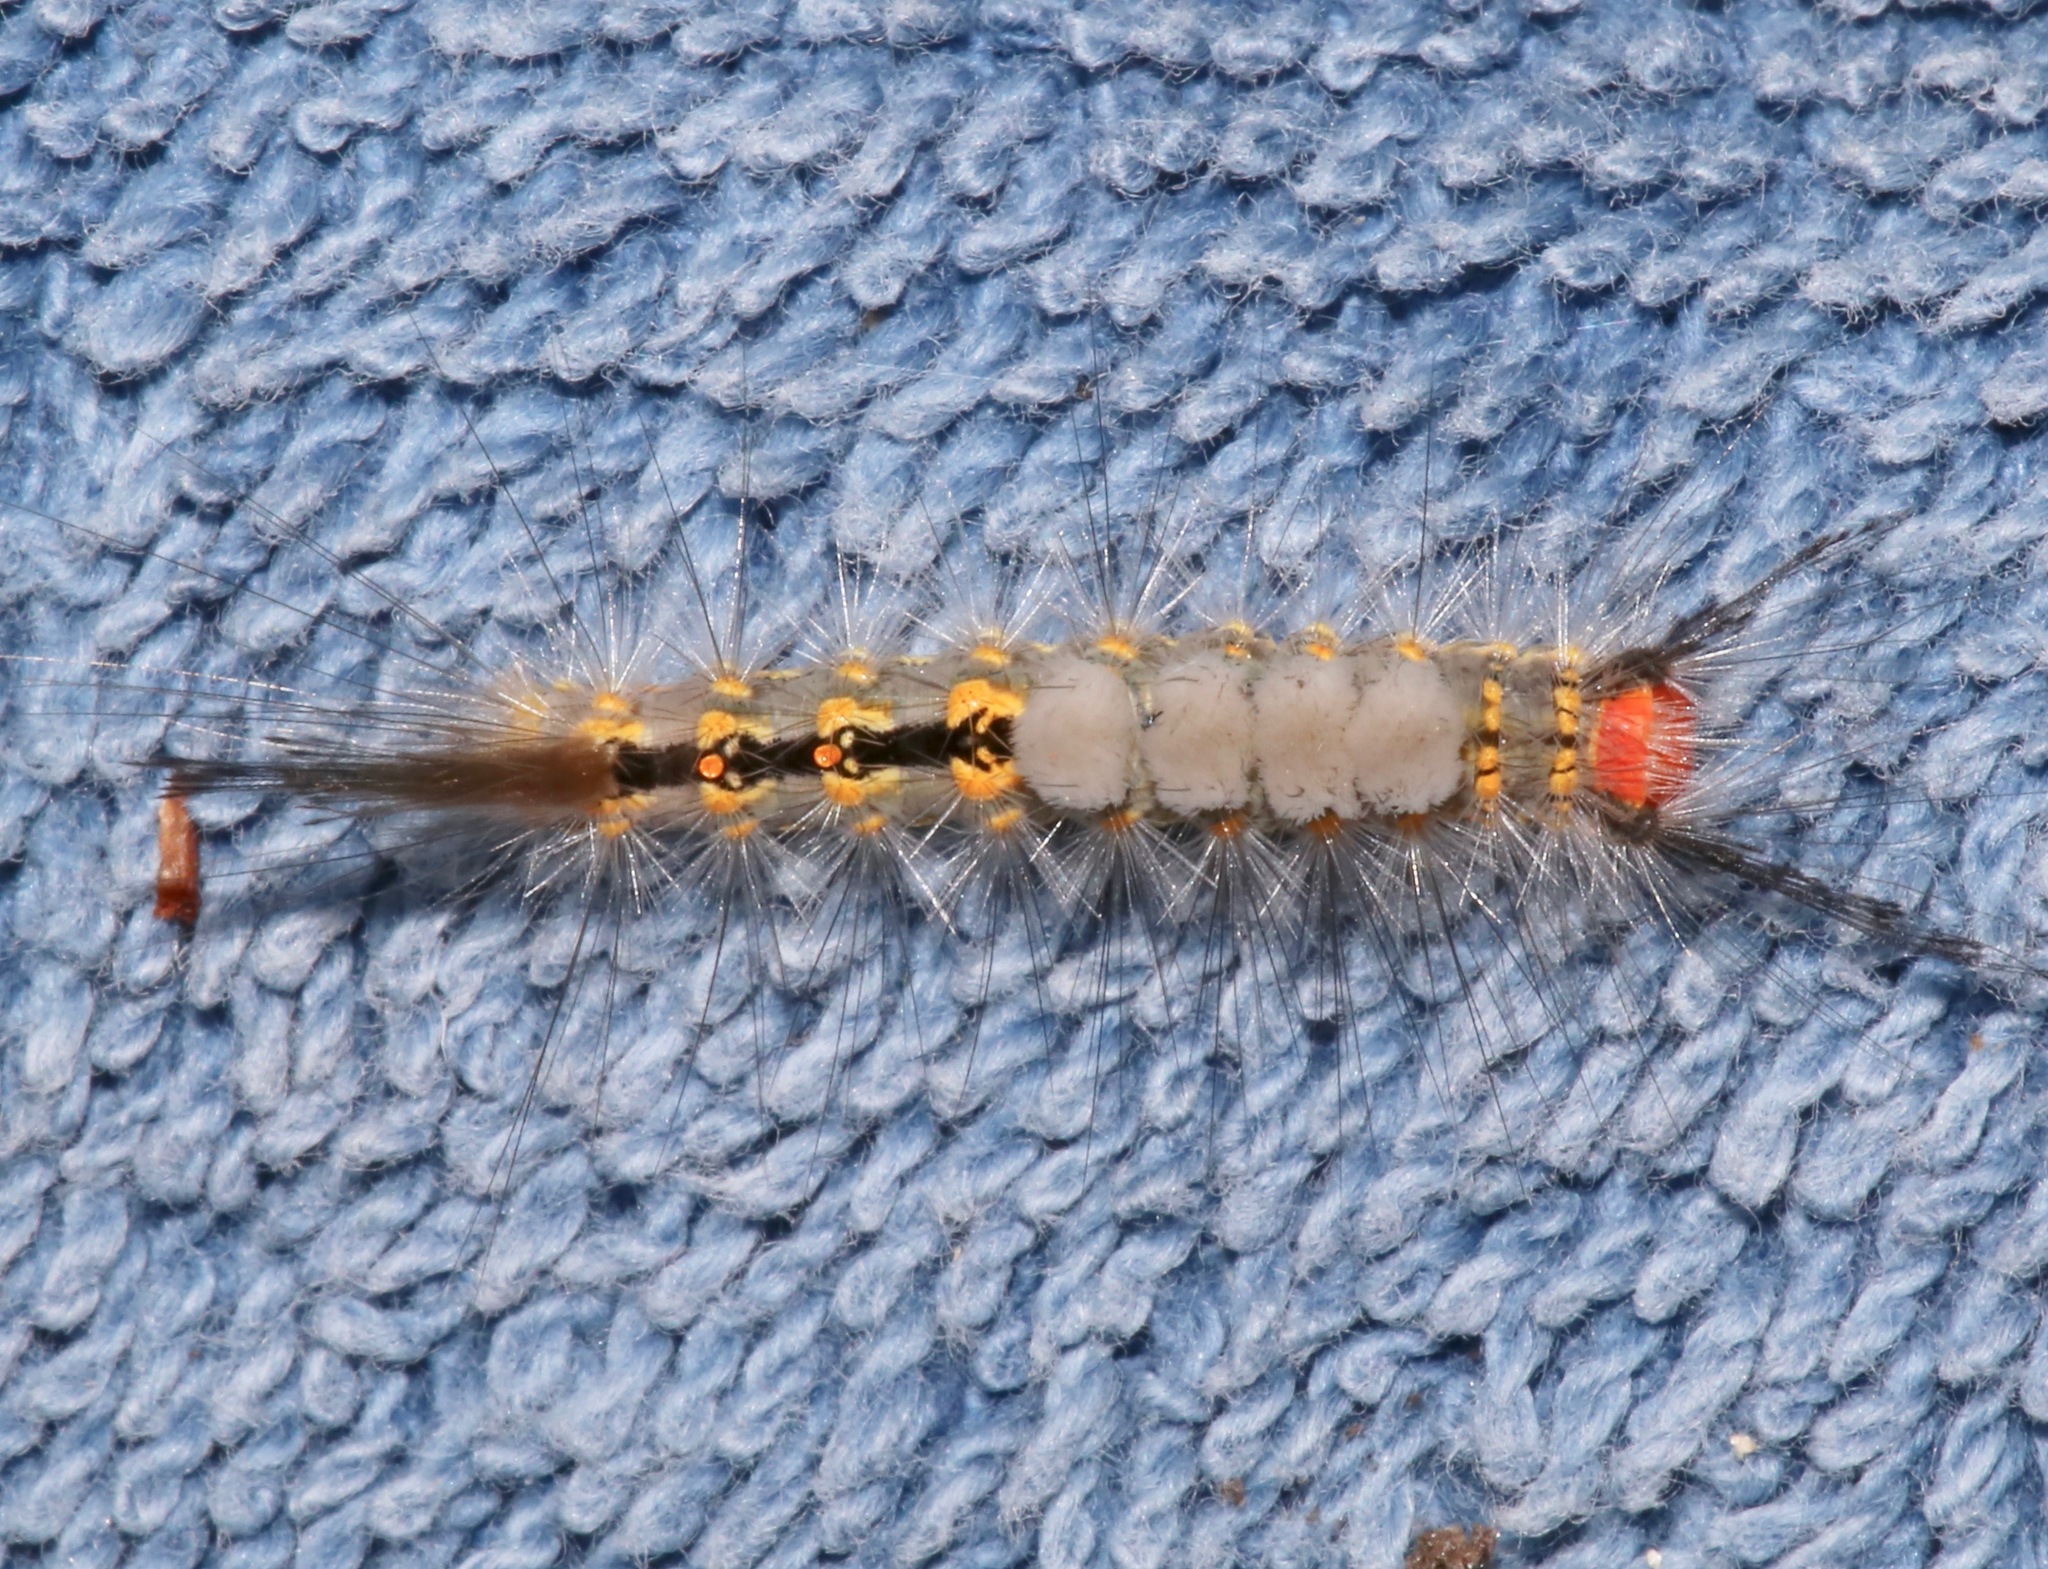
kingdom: Animalia
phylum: Arthropoda
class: Insecta
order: Lepidoptera
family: Erebidae
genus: Orgyia
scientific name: Orgyia detrita
